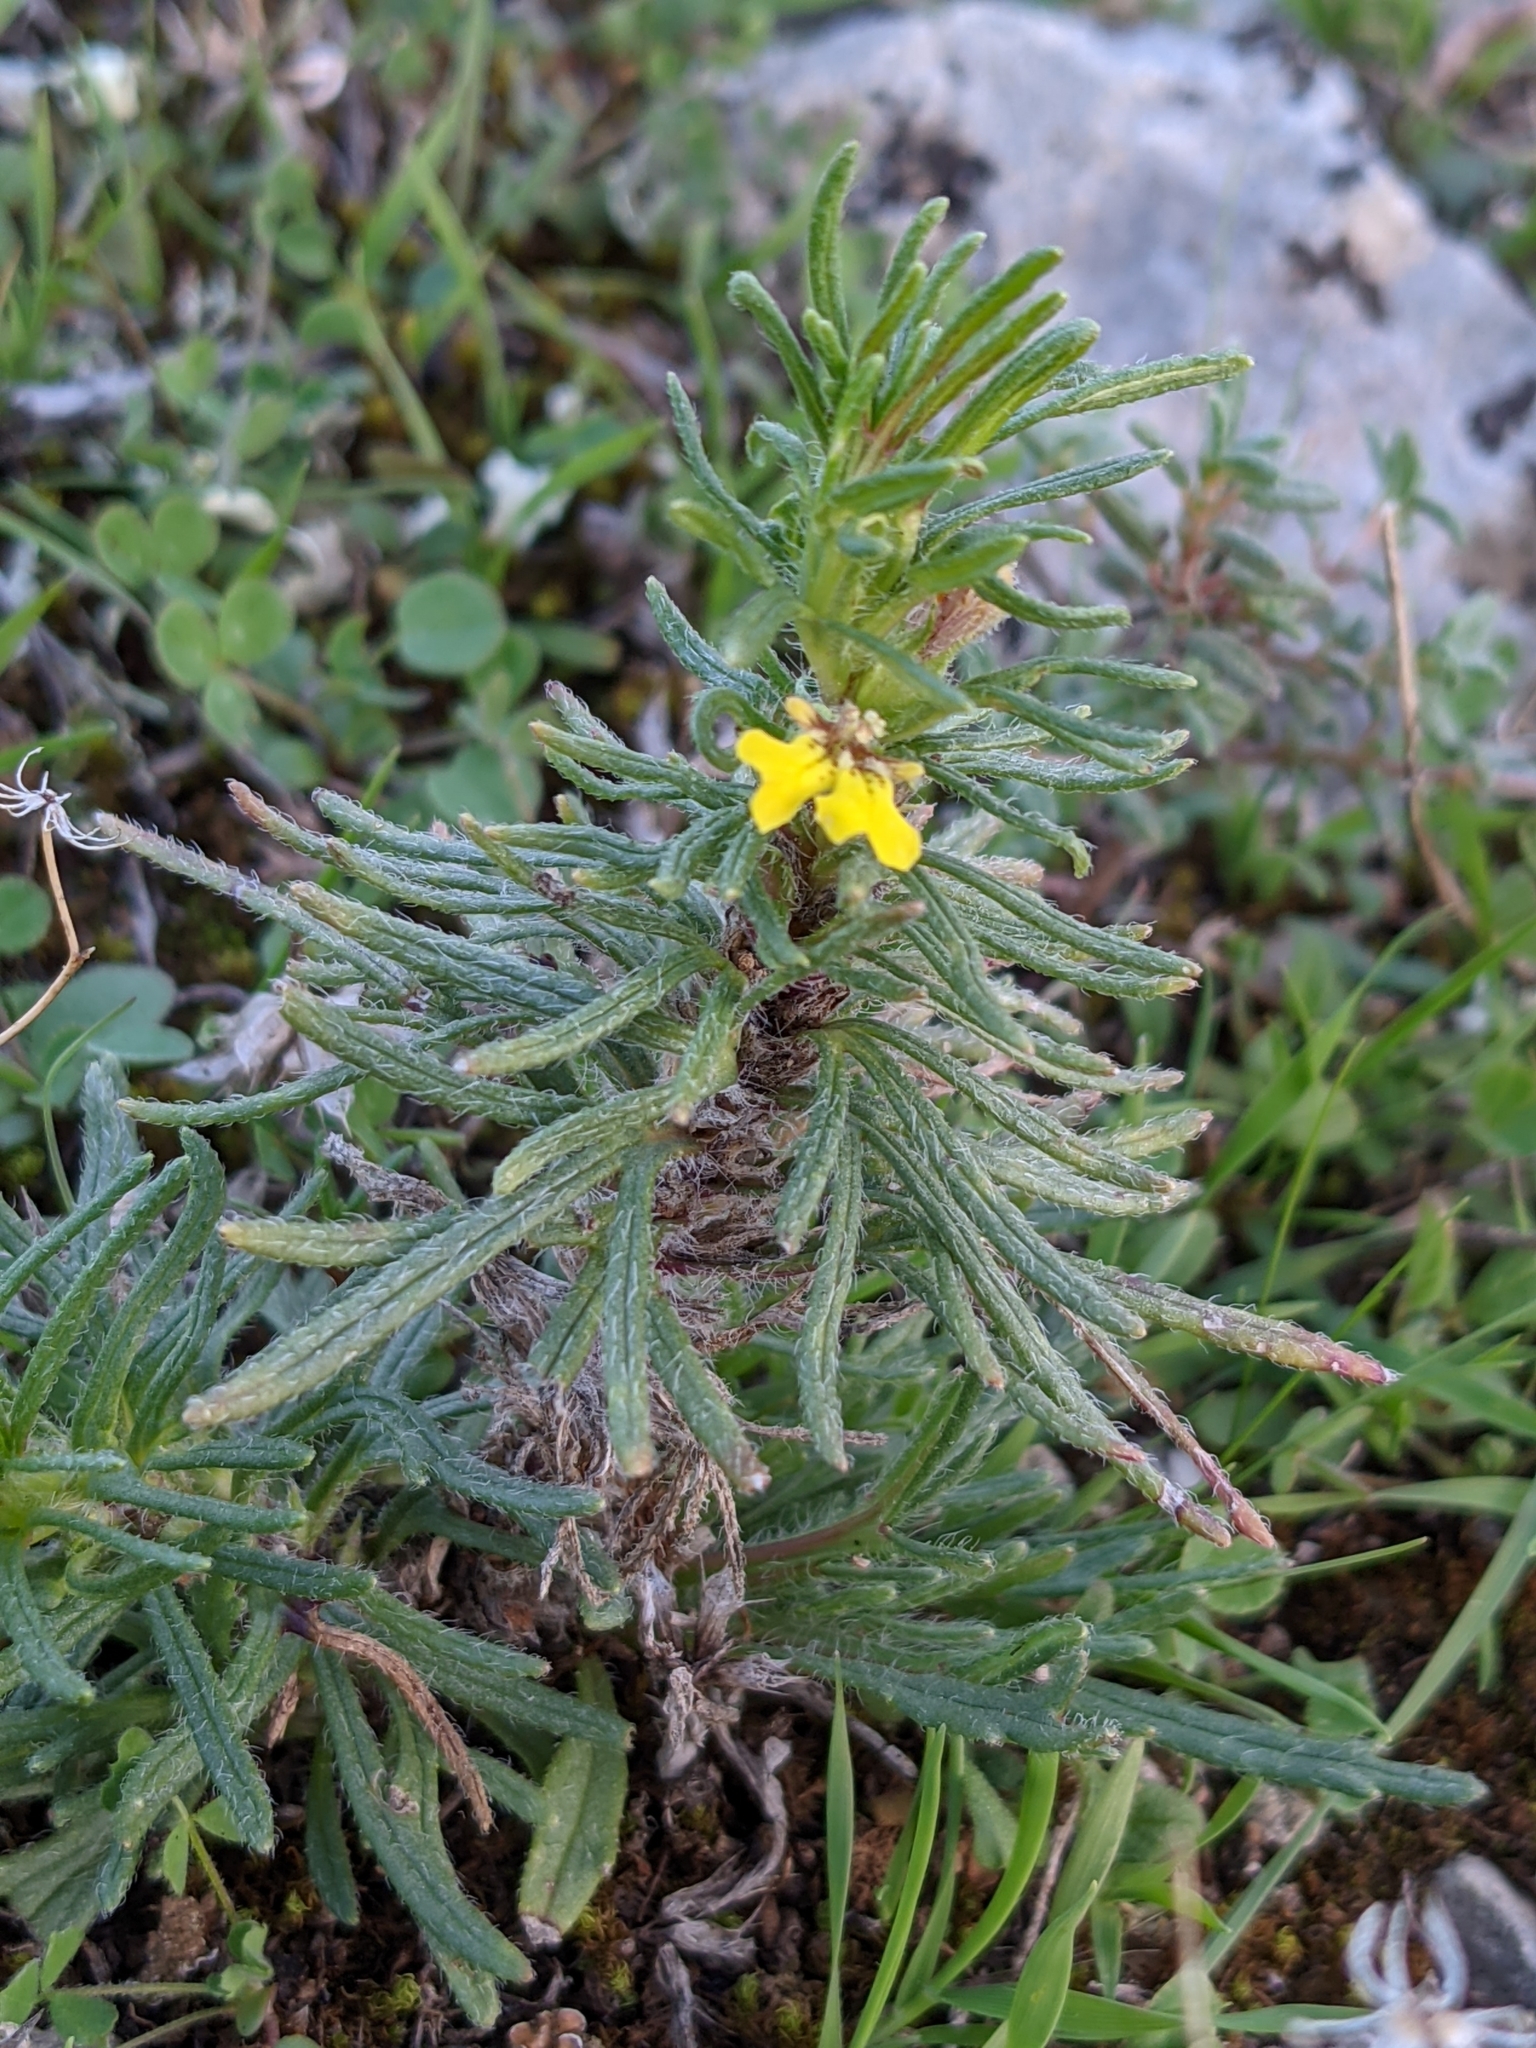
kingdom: Plantae
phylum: Tracheophyta
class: Magnoliopsida
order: Lamiales
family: Lamiaceae
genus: Ajuga
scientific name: Ajuga chamaepitys
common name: Ground-pine
